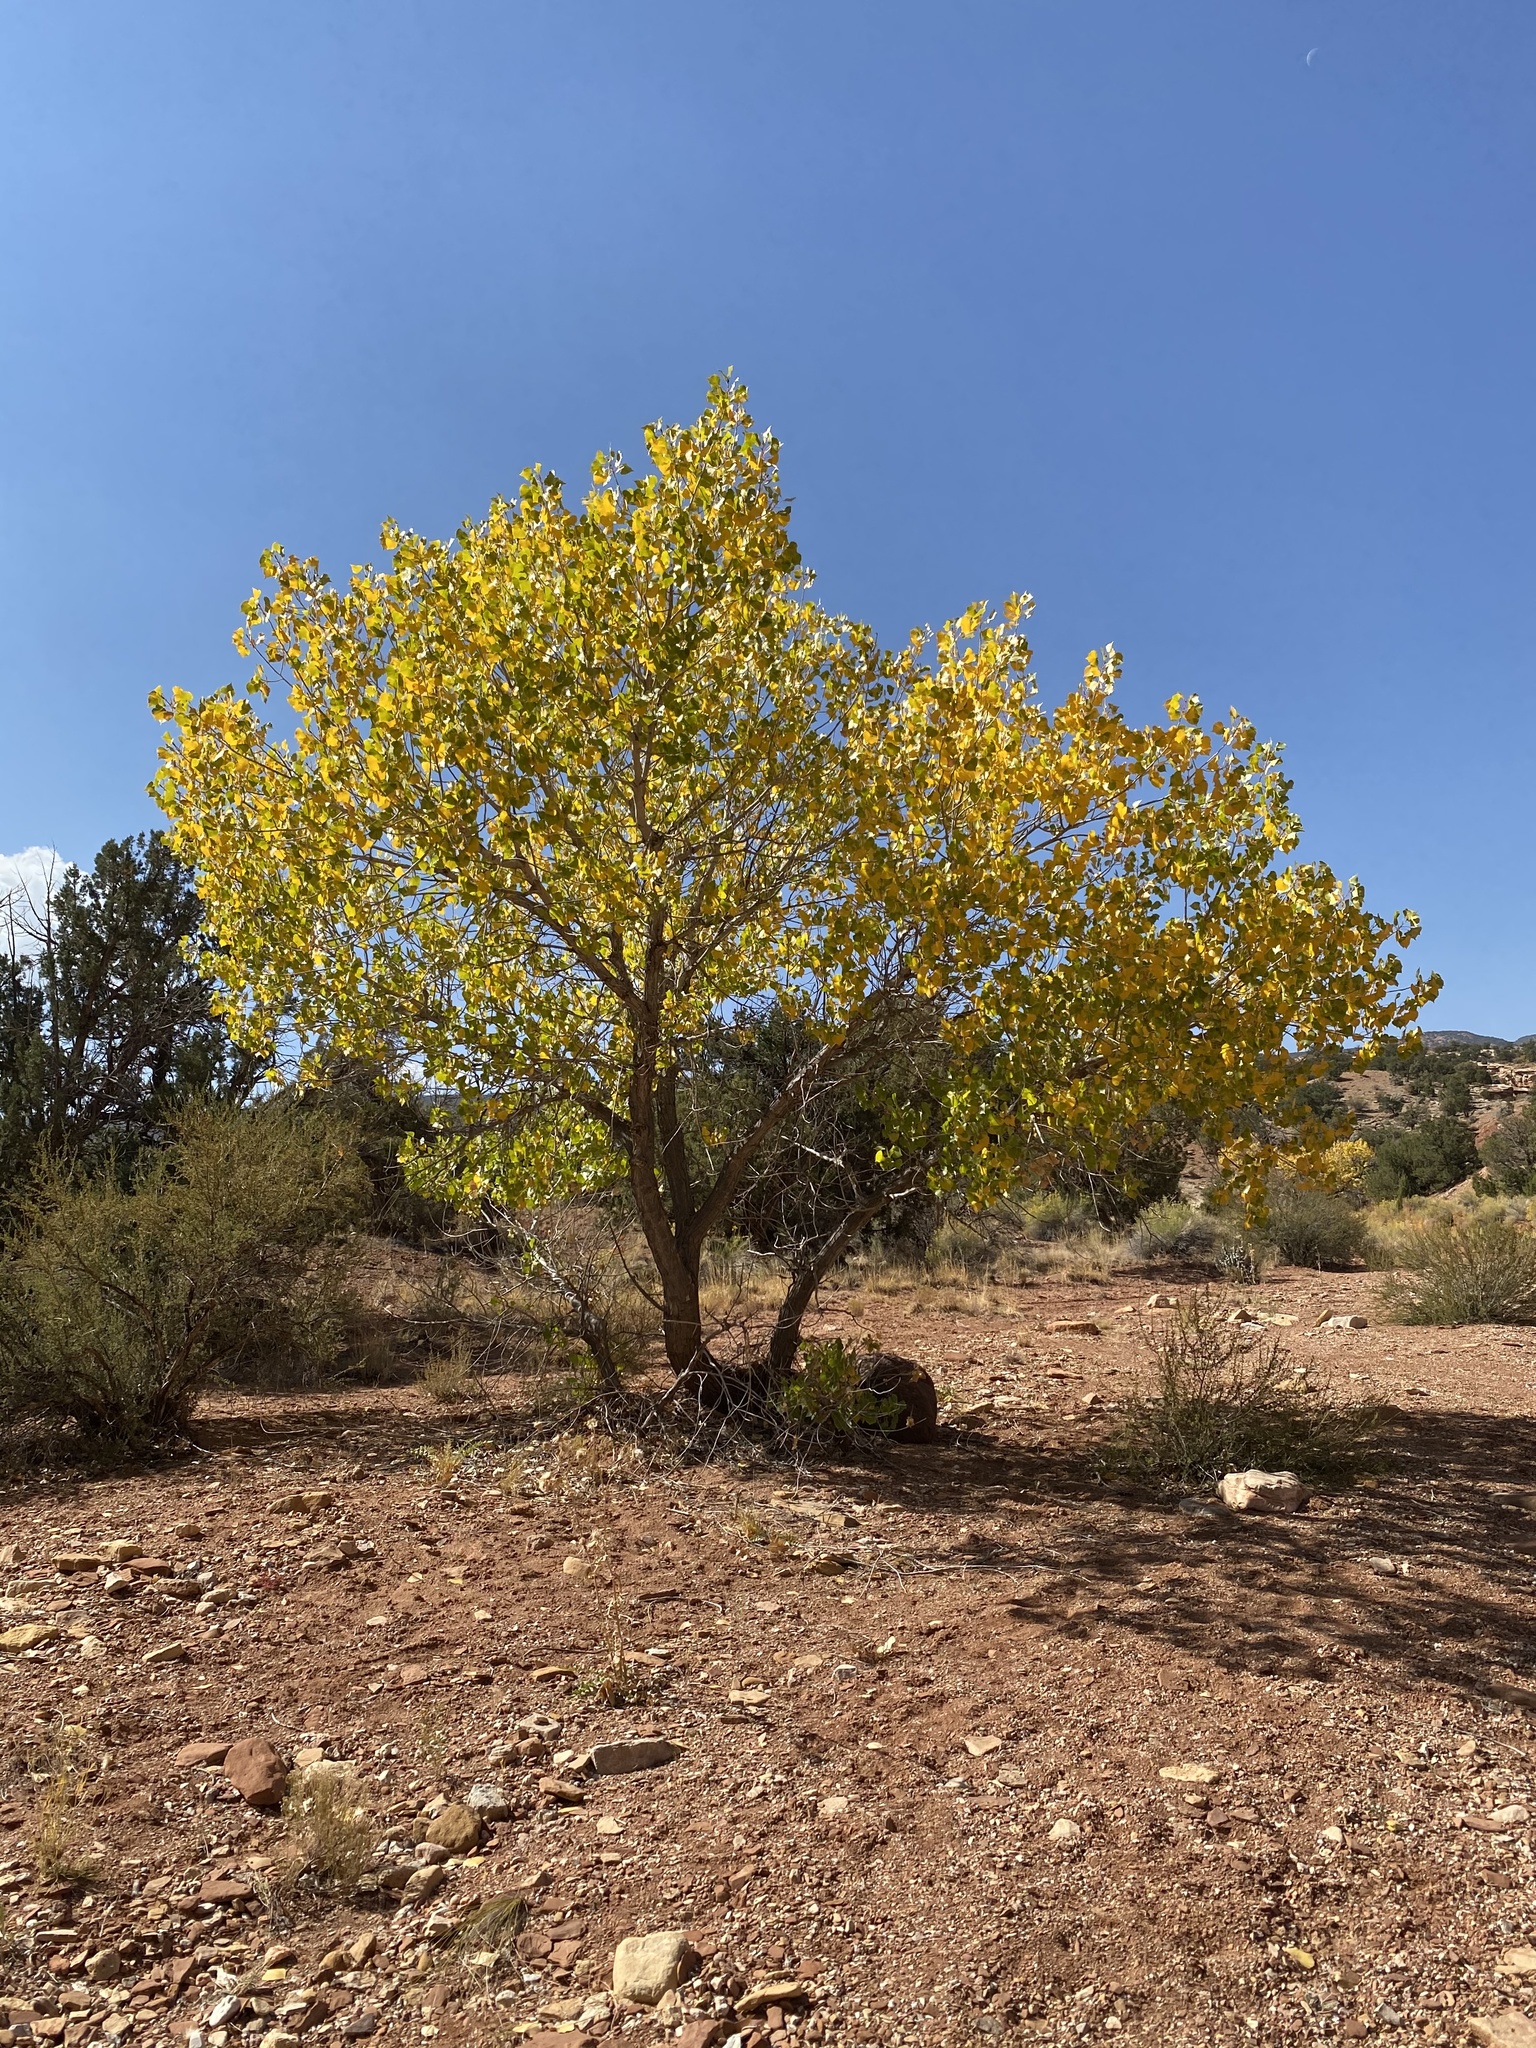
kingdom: Plantae
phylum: Tracheophyta
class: Magnoliopsida
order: Malpighiales
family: Salicaceae
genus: Populus
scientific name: Populus fremontii
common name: Fremont's cottonwood
